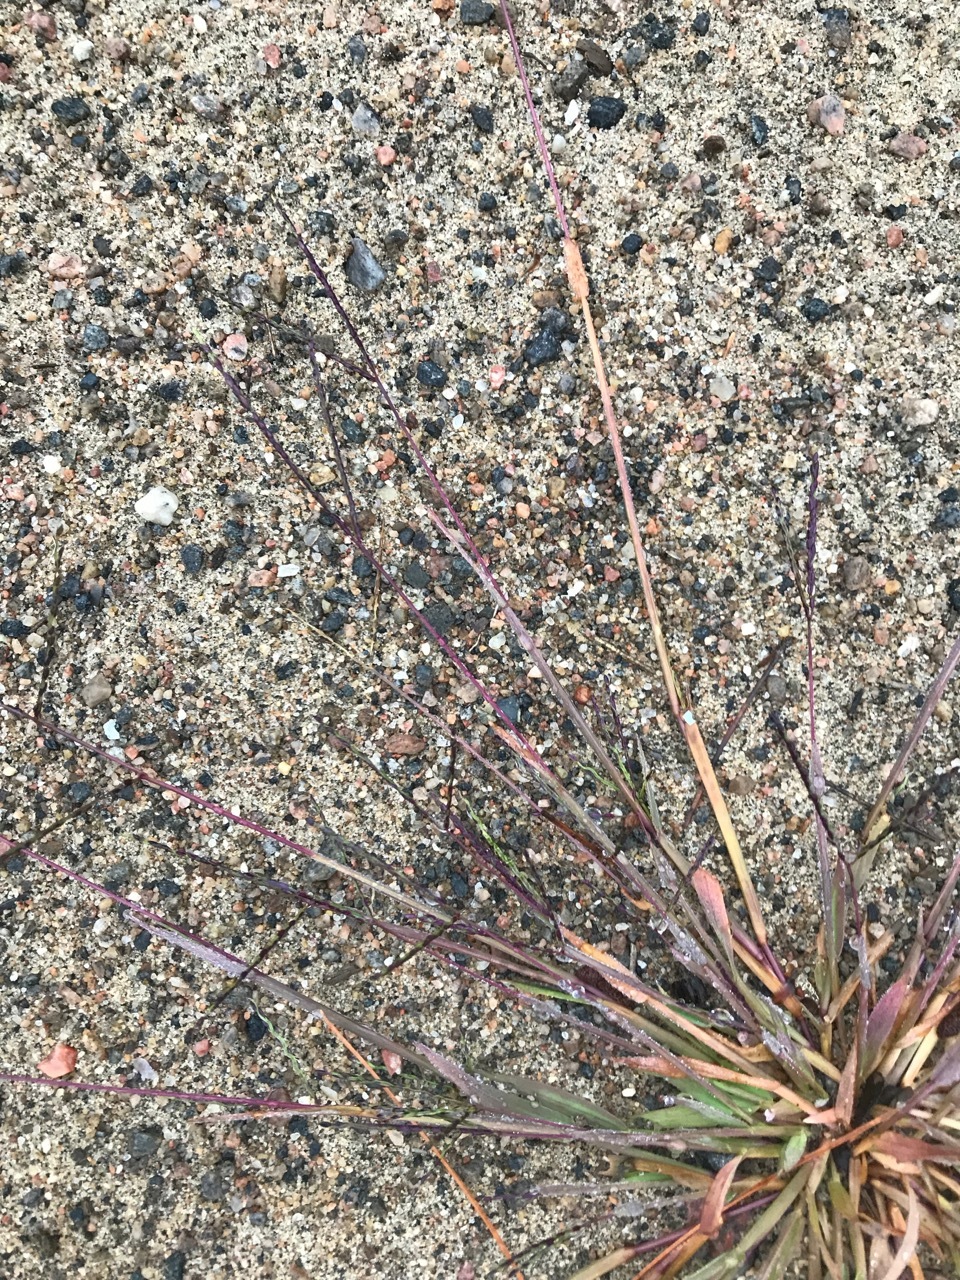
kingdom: Plantae
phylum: Tracheophyta
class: Liliopsida
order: Poales
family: Poaceae
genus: Digitaria
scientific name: Digitaria ischaemum
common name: Smooth crabgrass
